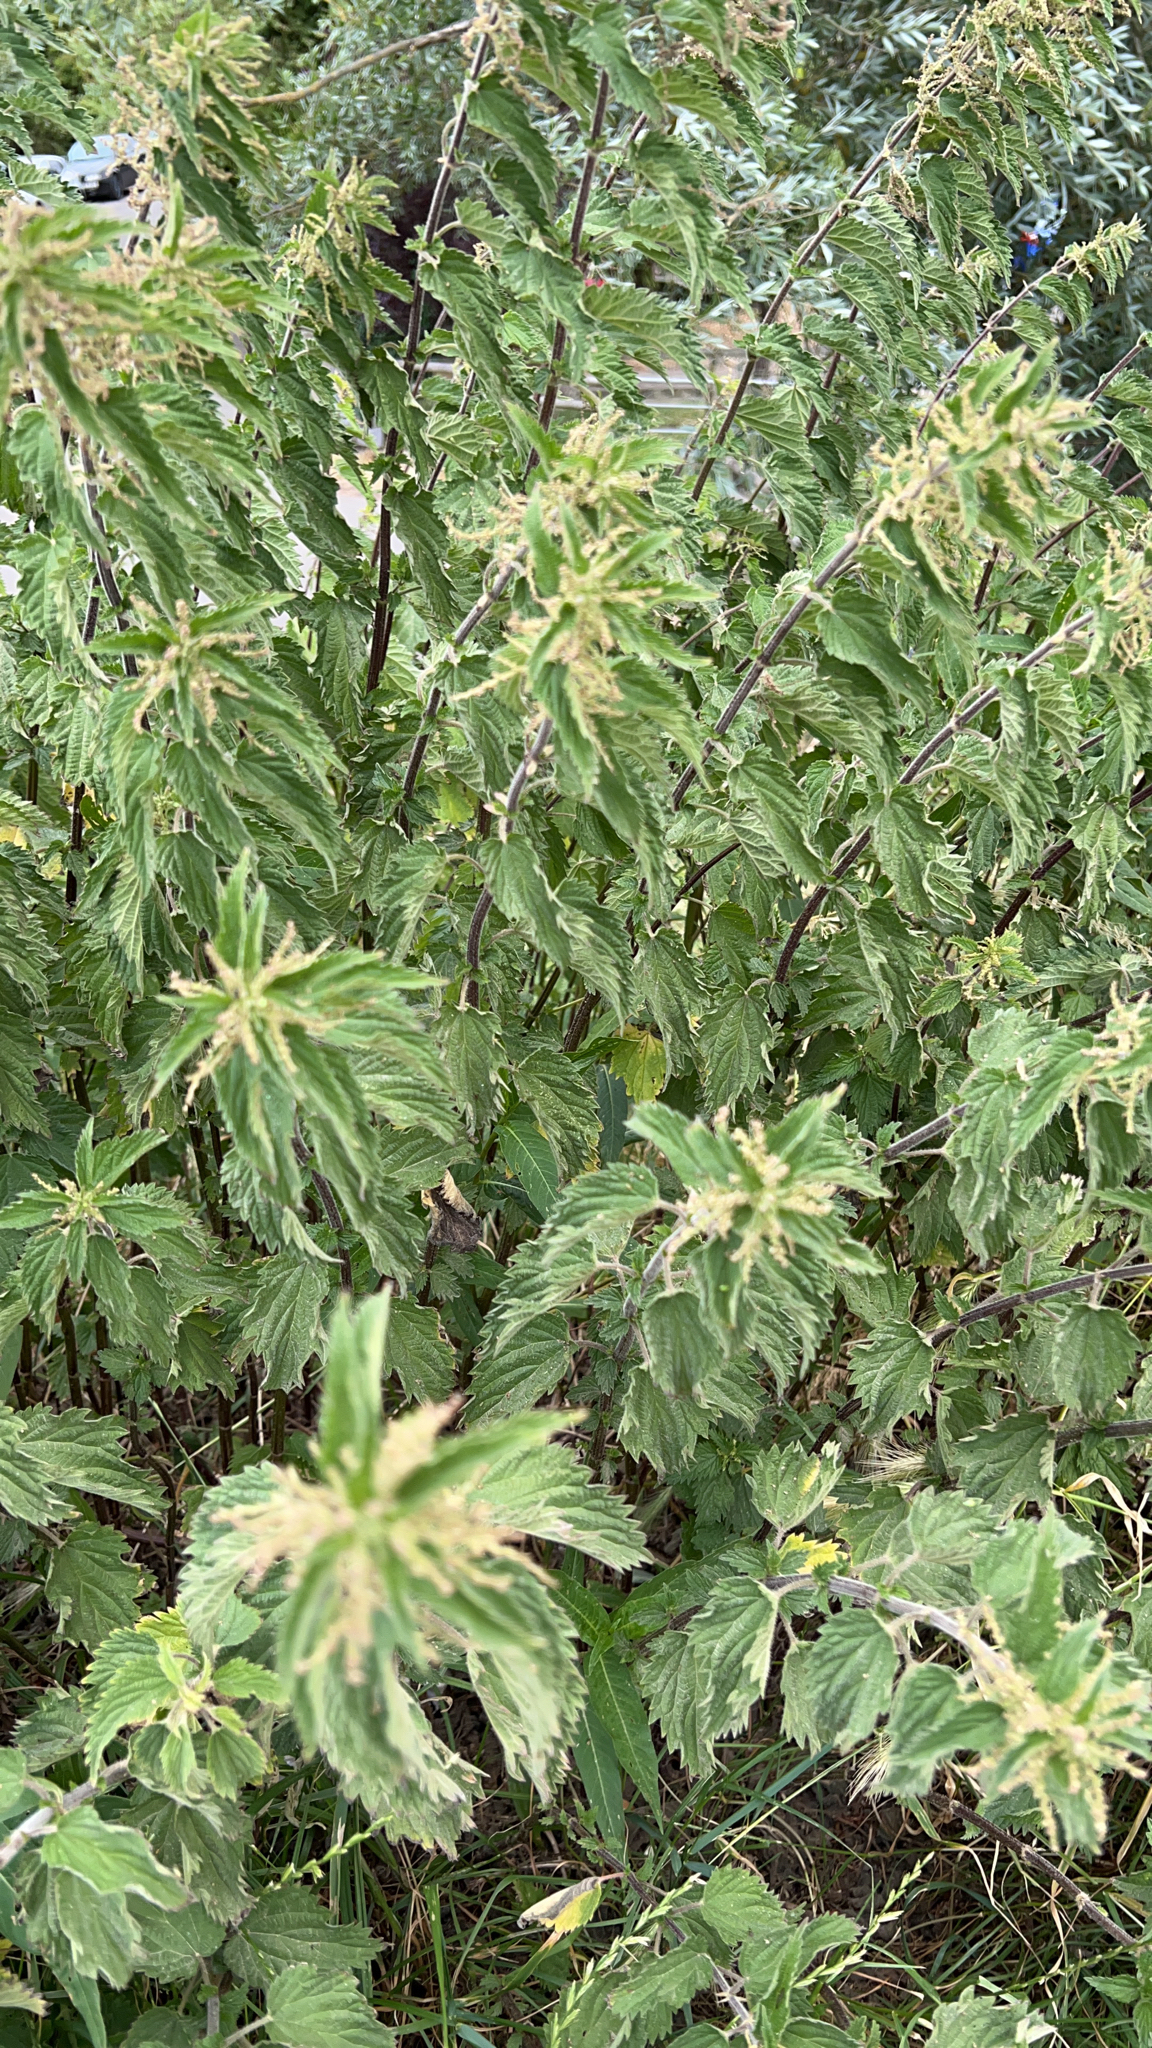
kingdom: Plantae
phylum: Tracheophyta
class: Magnoliopsida
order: Rosales
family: Urticaceae
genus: Urtica
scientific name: Urtica dioica
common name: Common nettle
